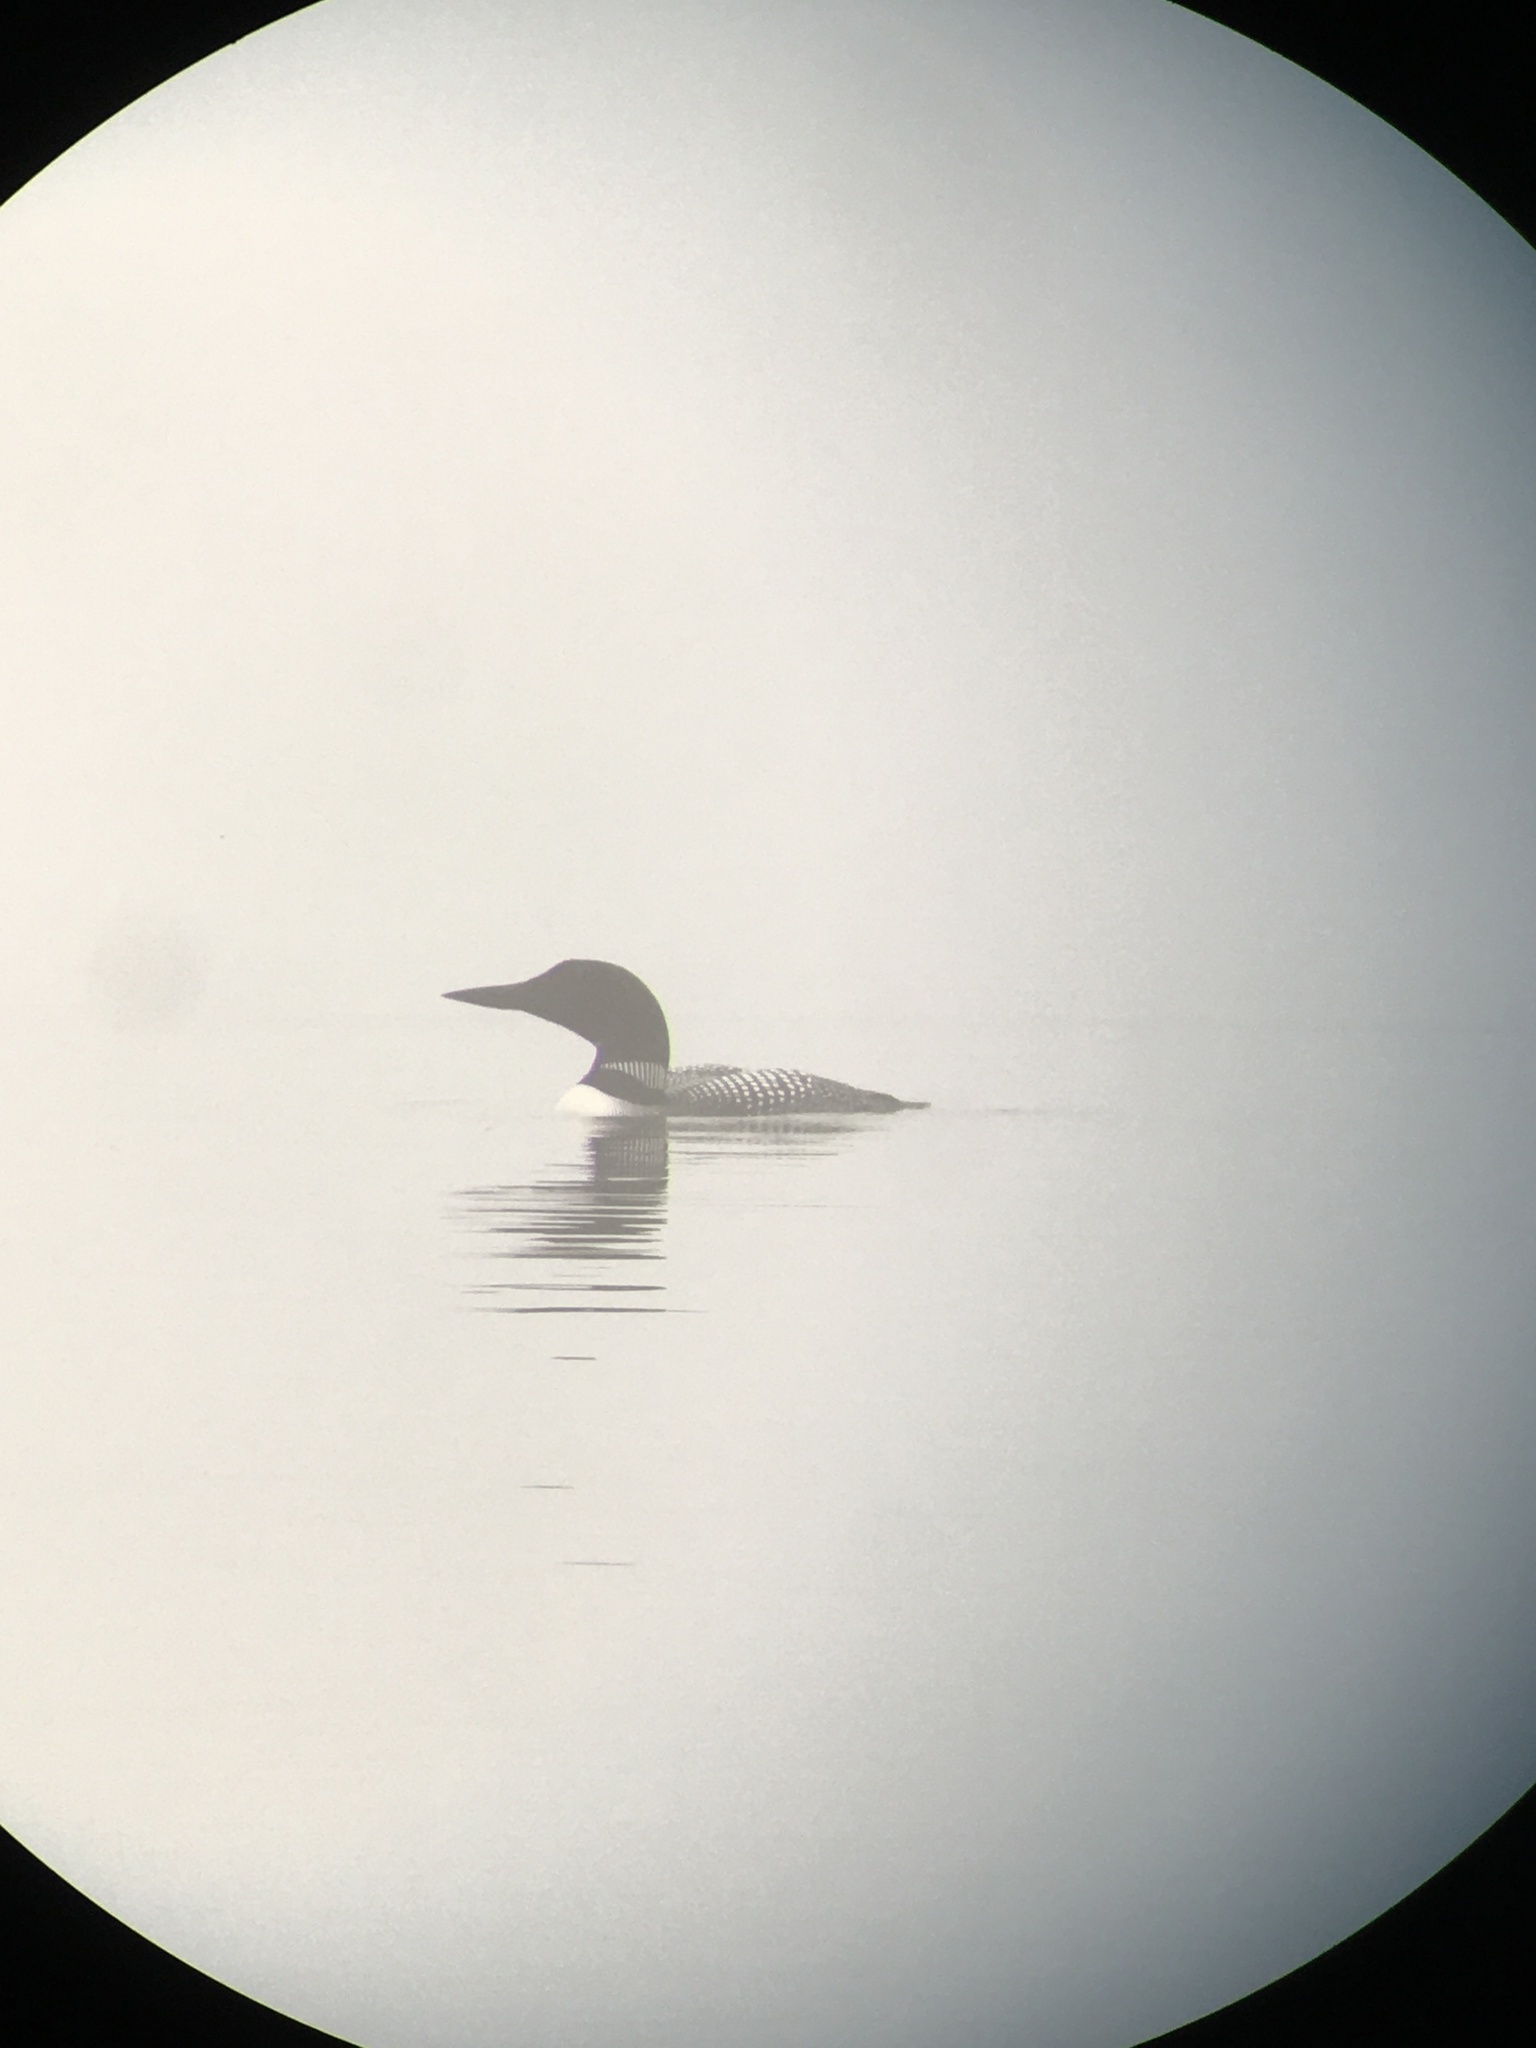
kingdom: Animalia
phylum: Chordata
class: Aves
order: Gaviiformes
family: Gaviidae
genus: Gavia
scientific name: Gavia immer
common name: Common loon
